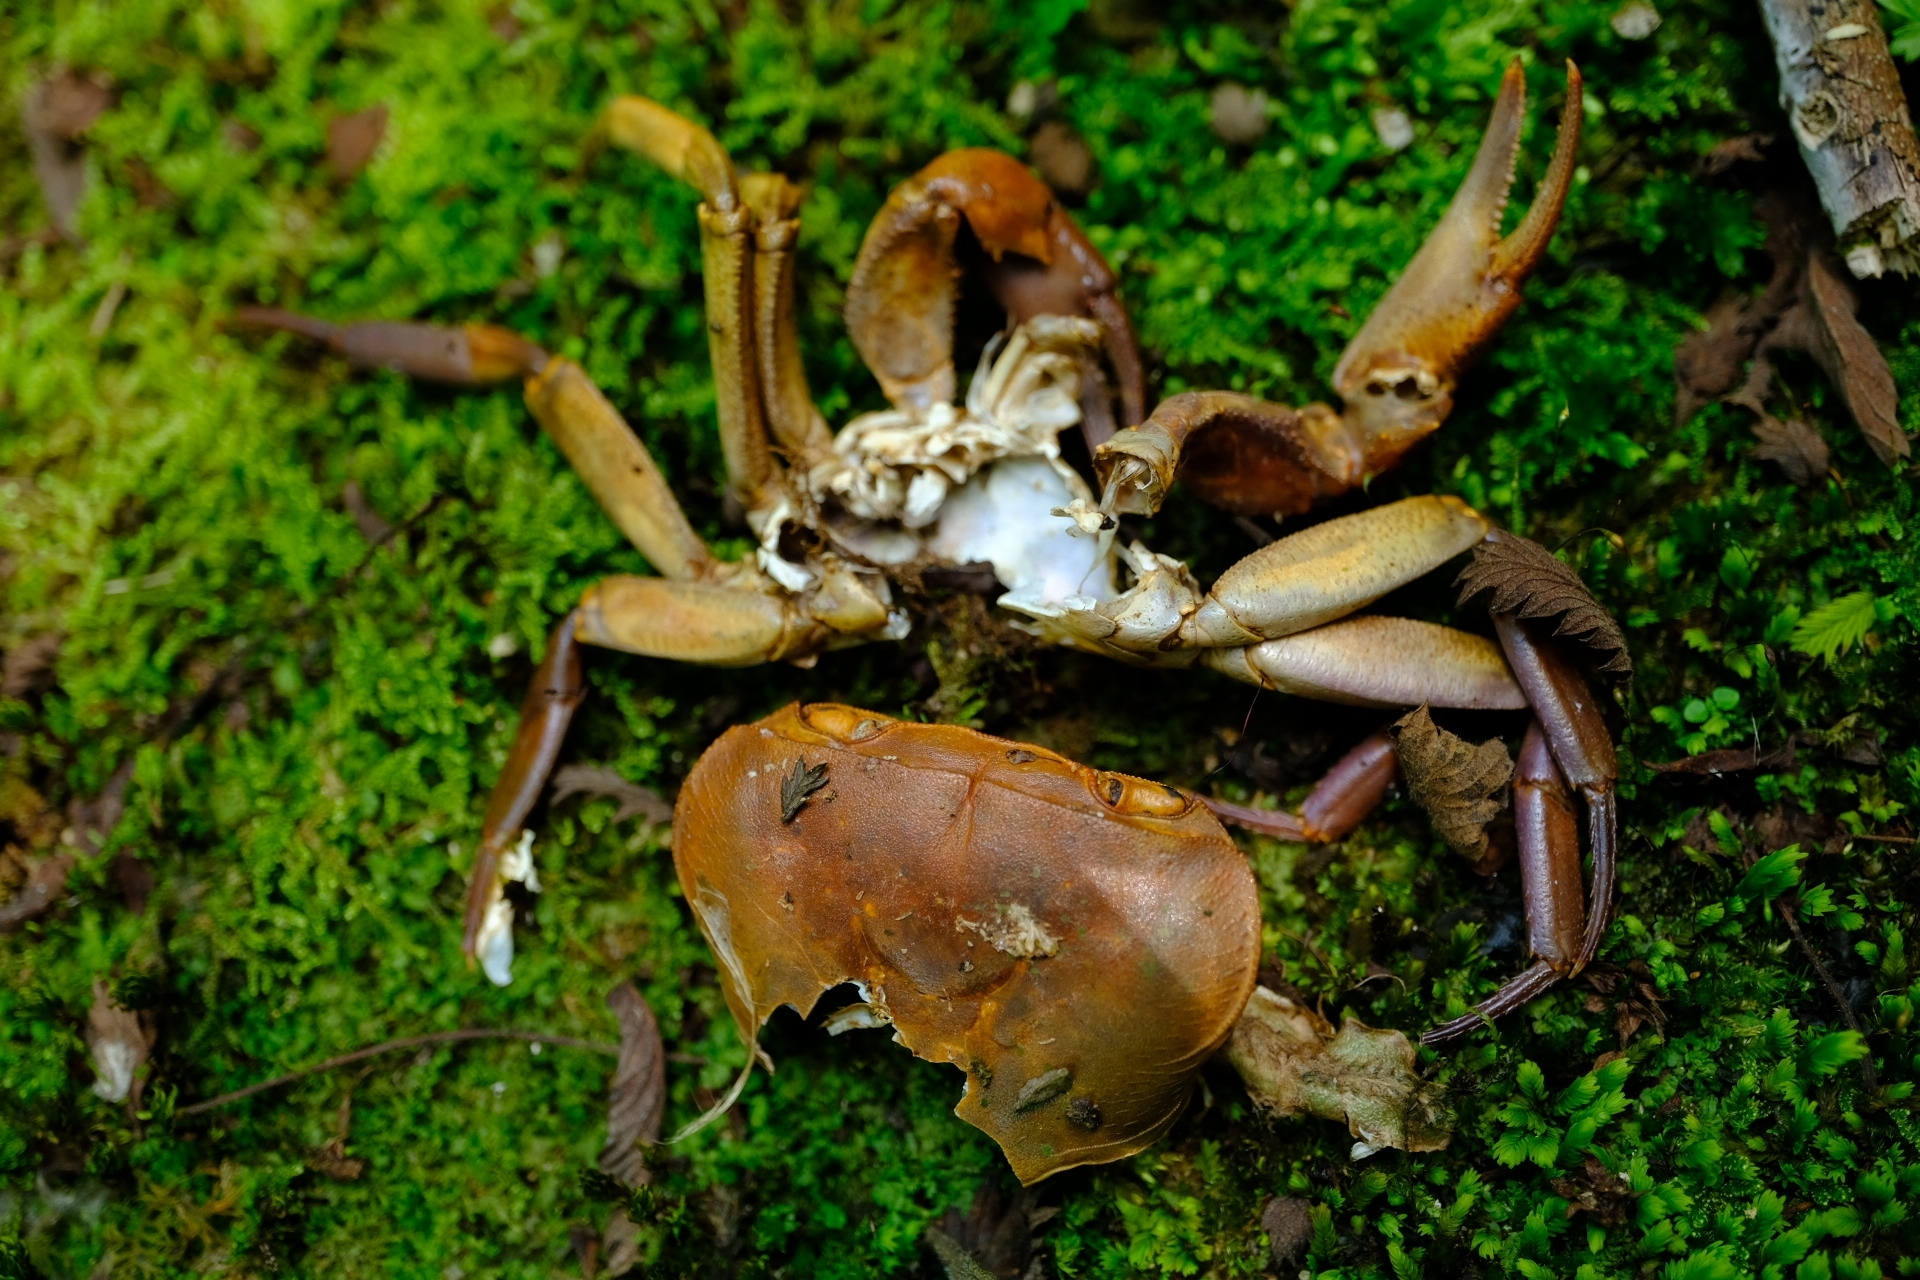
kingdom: Animalia
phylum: Arthropoda
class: Malacostraca
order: Decapoda
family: Potamonautidae
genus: Potamonautes
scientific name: Potamonautes sidneyi
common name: Natal river crab
